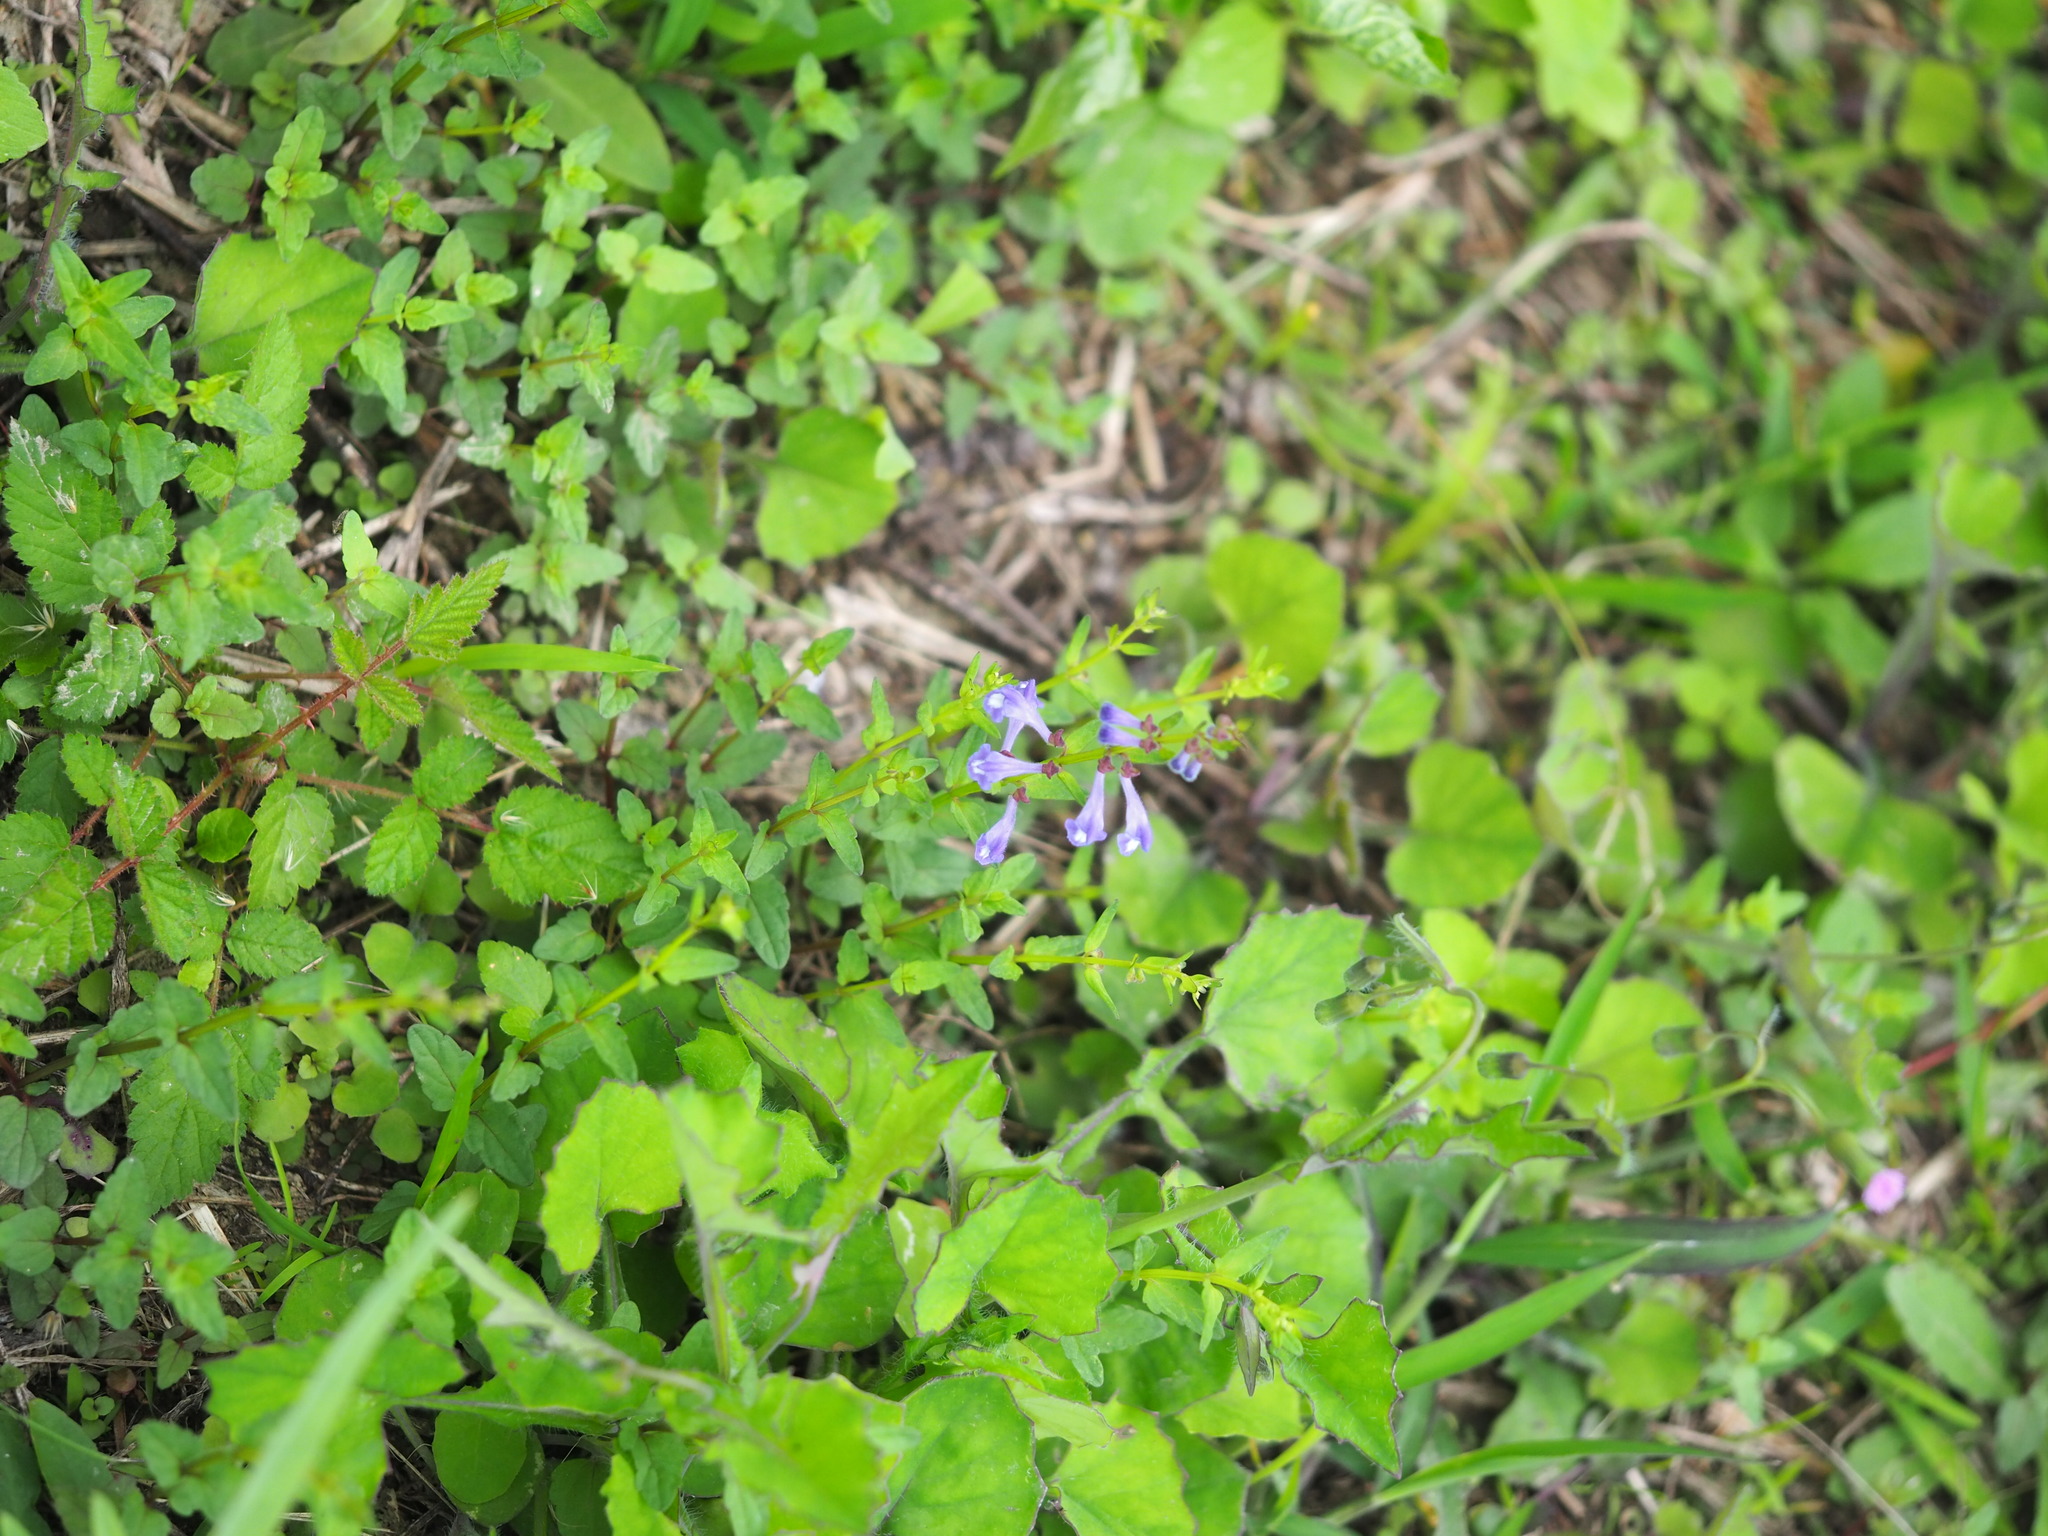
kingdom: Plantae
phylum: Tracheophyta
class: Magnoliopsida
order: Lamiales
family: Lamiaceae
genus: Scutellaria
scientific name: Scutellaria barbata
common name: Barbed skullcap
